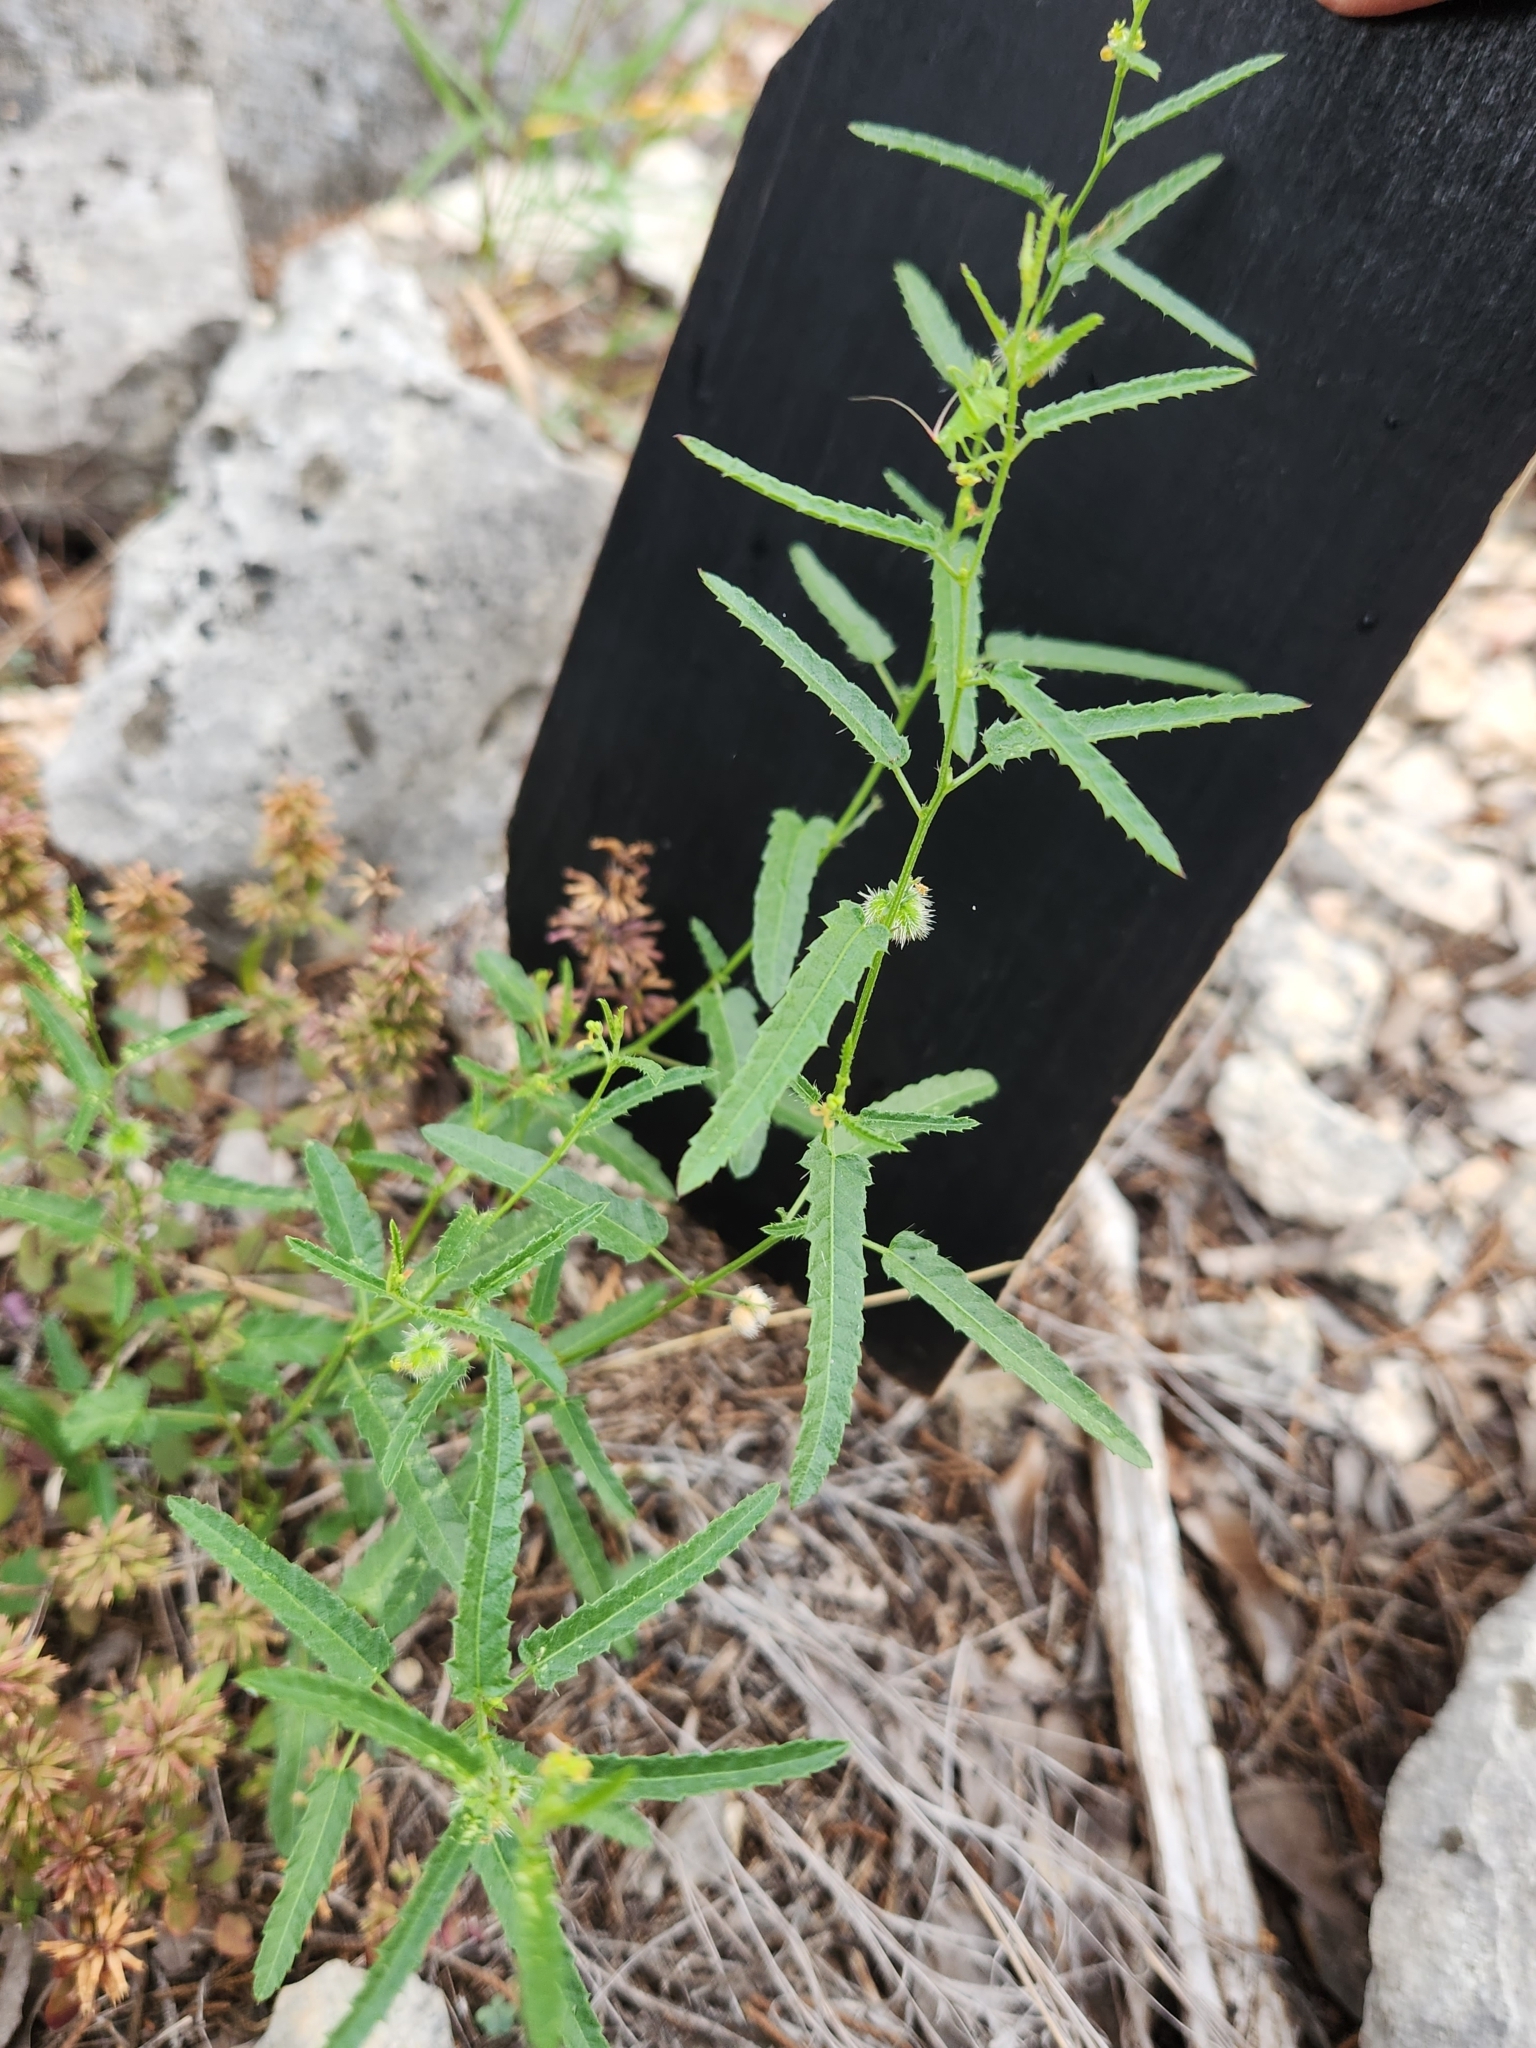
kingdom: Plantae
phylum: Tracheophyta
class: Magnoliopsida
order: Malpighiales
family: Euphorbiaceae
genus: Tragia
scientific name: Tragia ramosa
